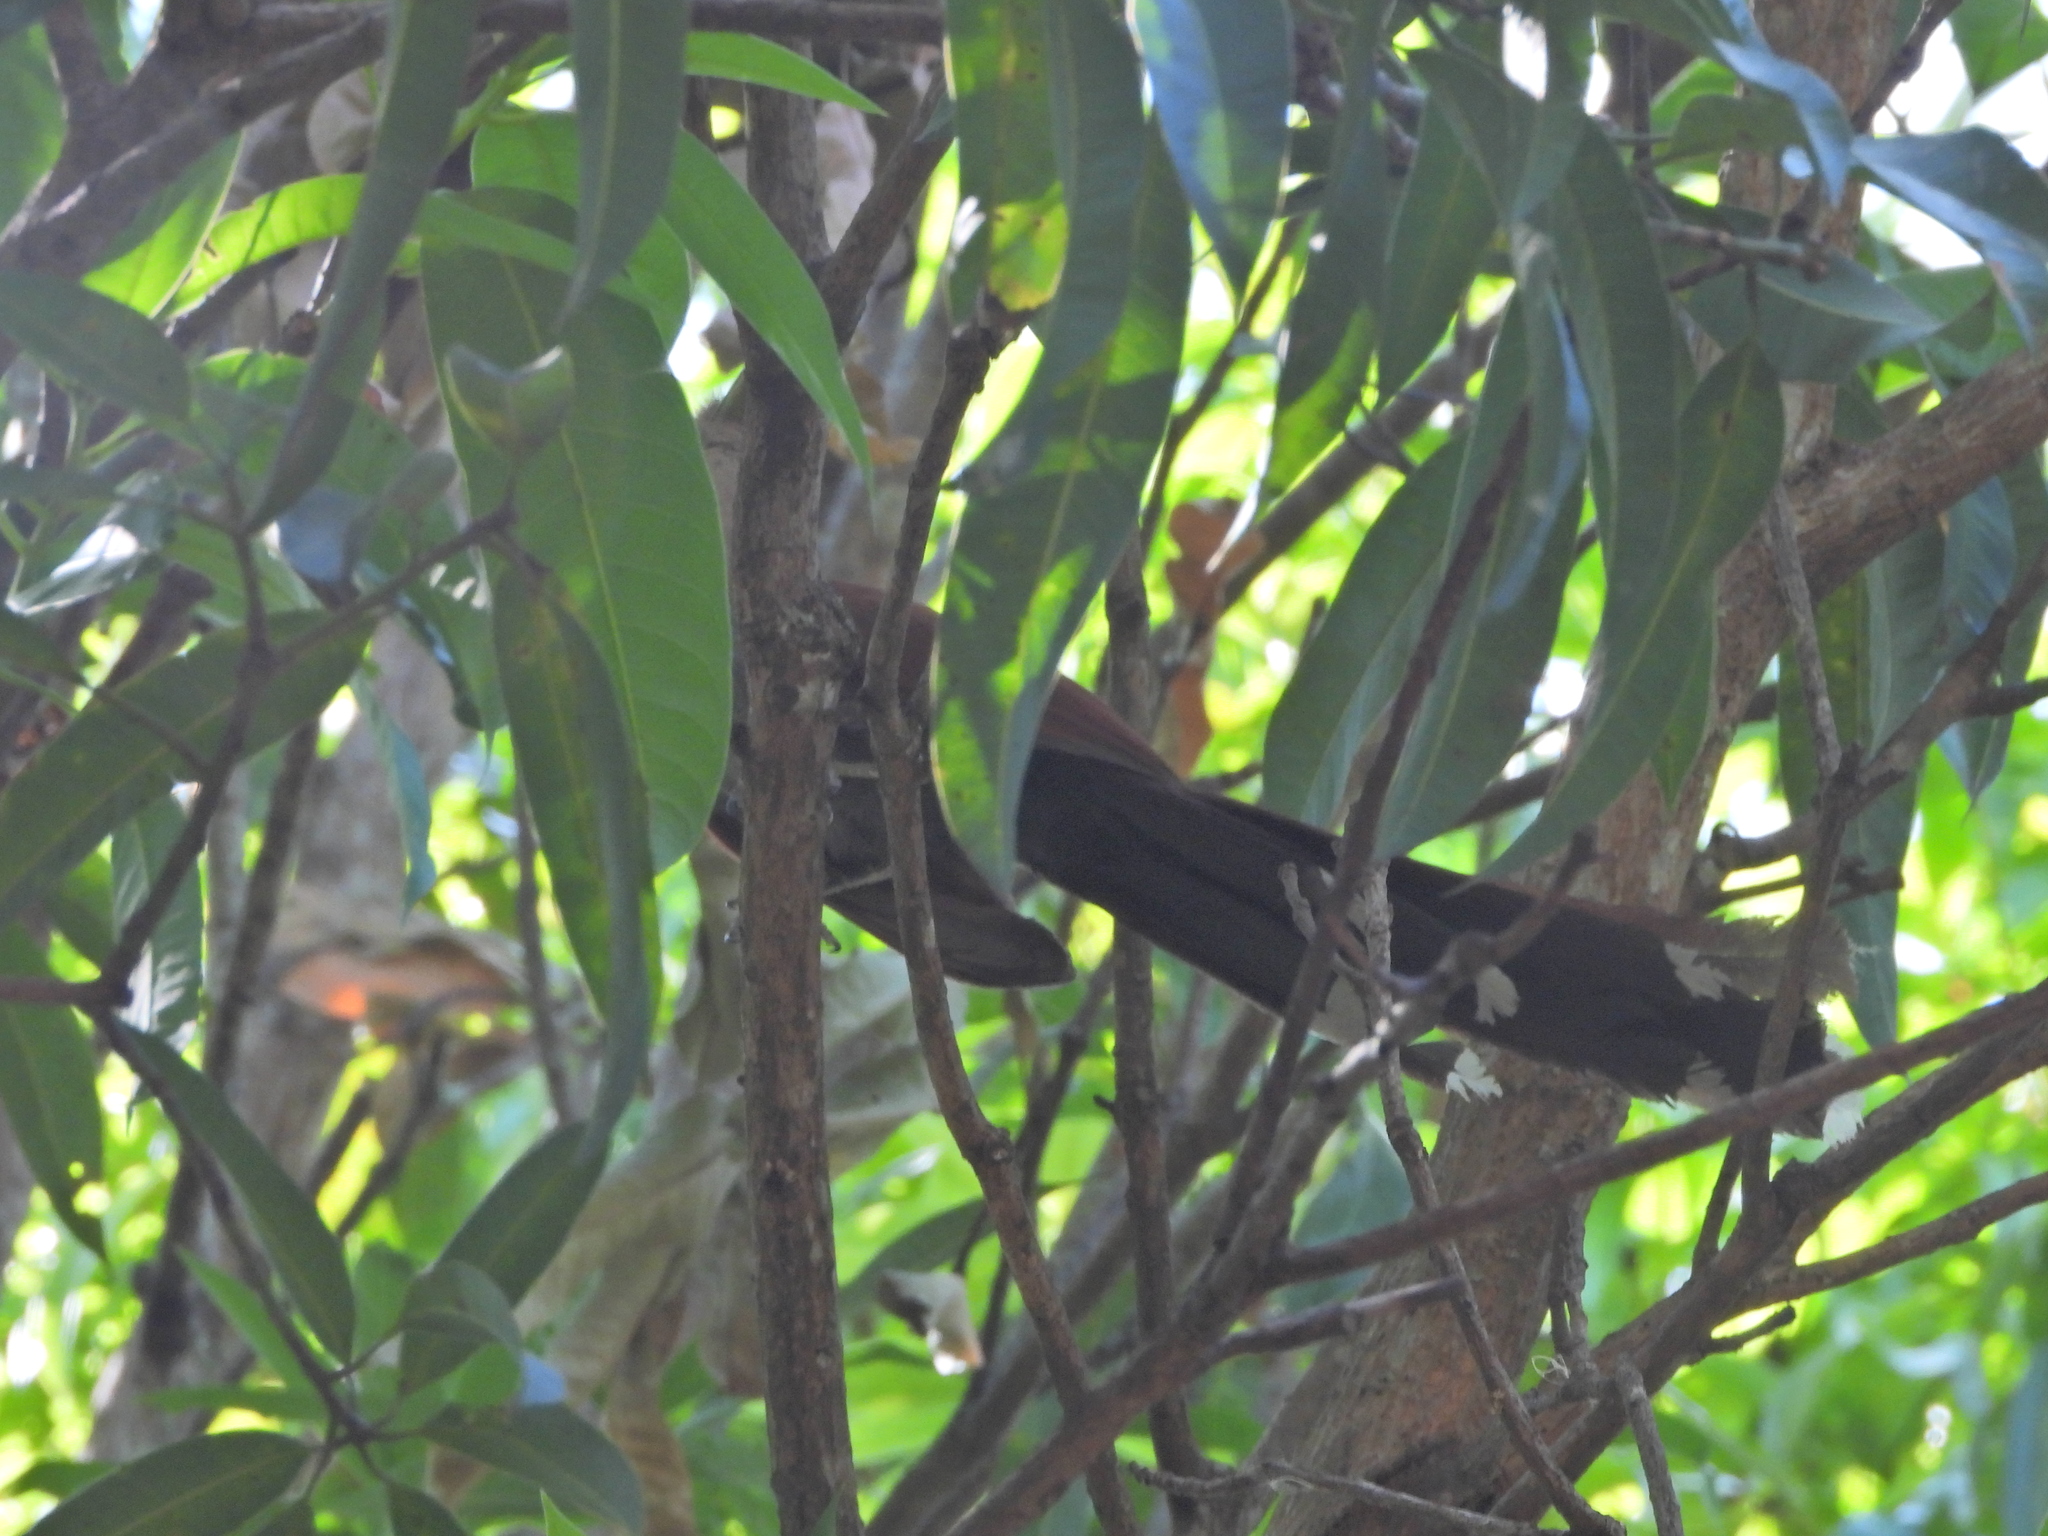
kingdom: Animalia
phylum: Chordata
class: Aves
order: Cuculiformes
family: Cuculidae
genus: Piaya
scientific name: Piaya cayana
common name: Squirrel cuckoo
